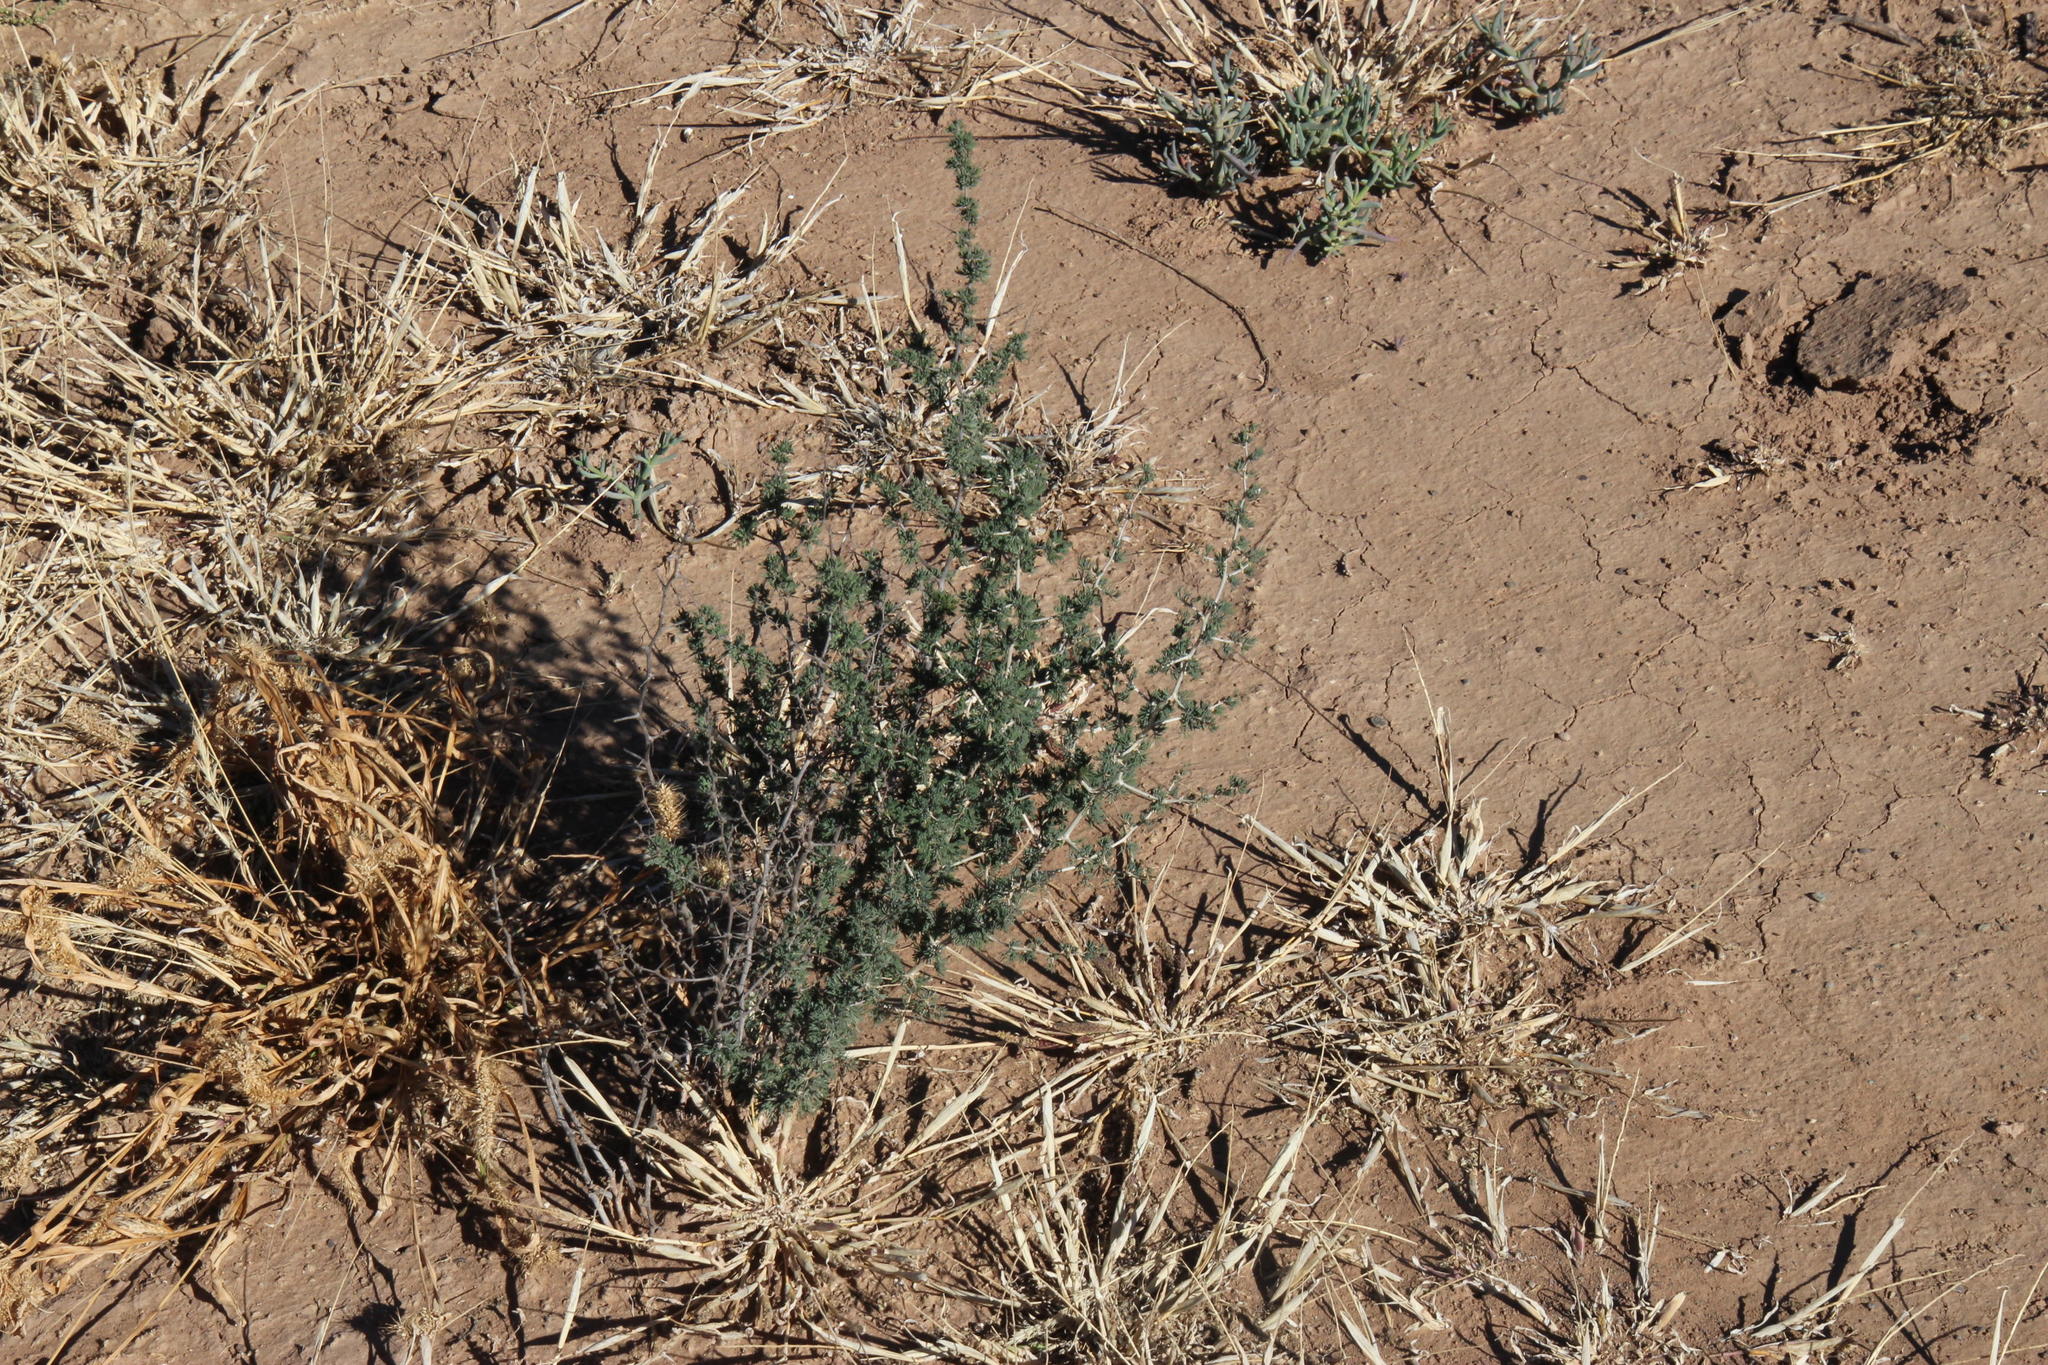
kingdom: Plantae
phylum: Tracheophyta
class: Liliopsida
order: Asparagales
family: Asparagaceae
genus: Asparagus
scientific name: Asparagus suaveolens
